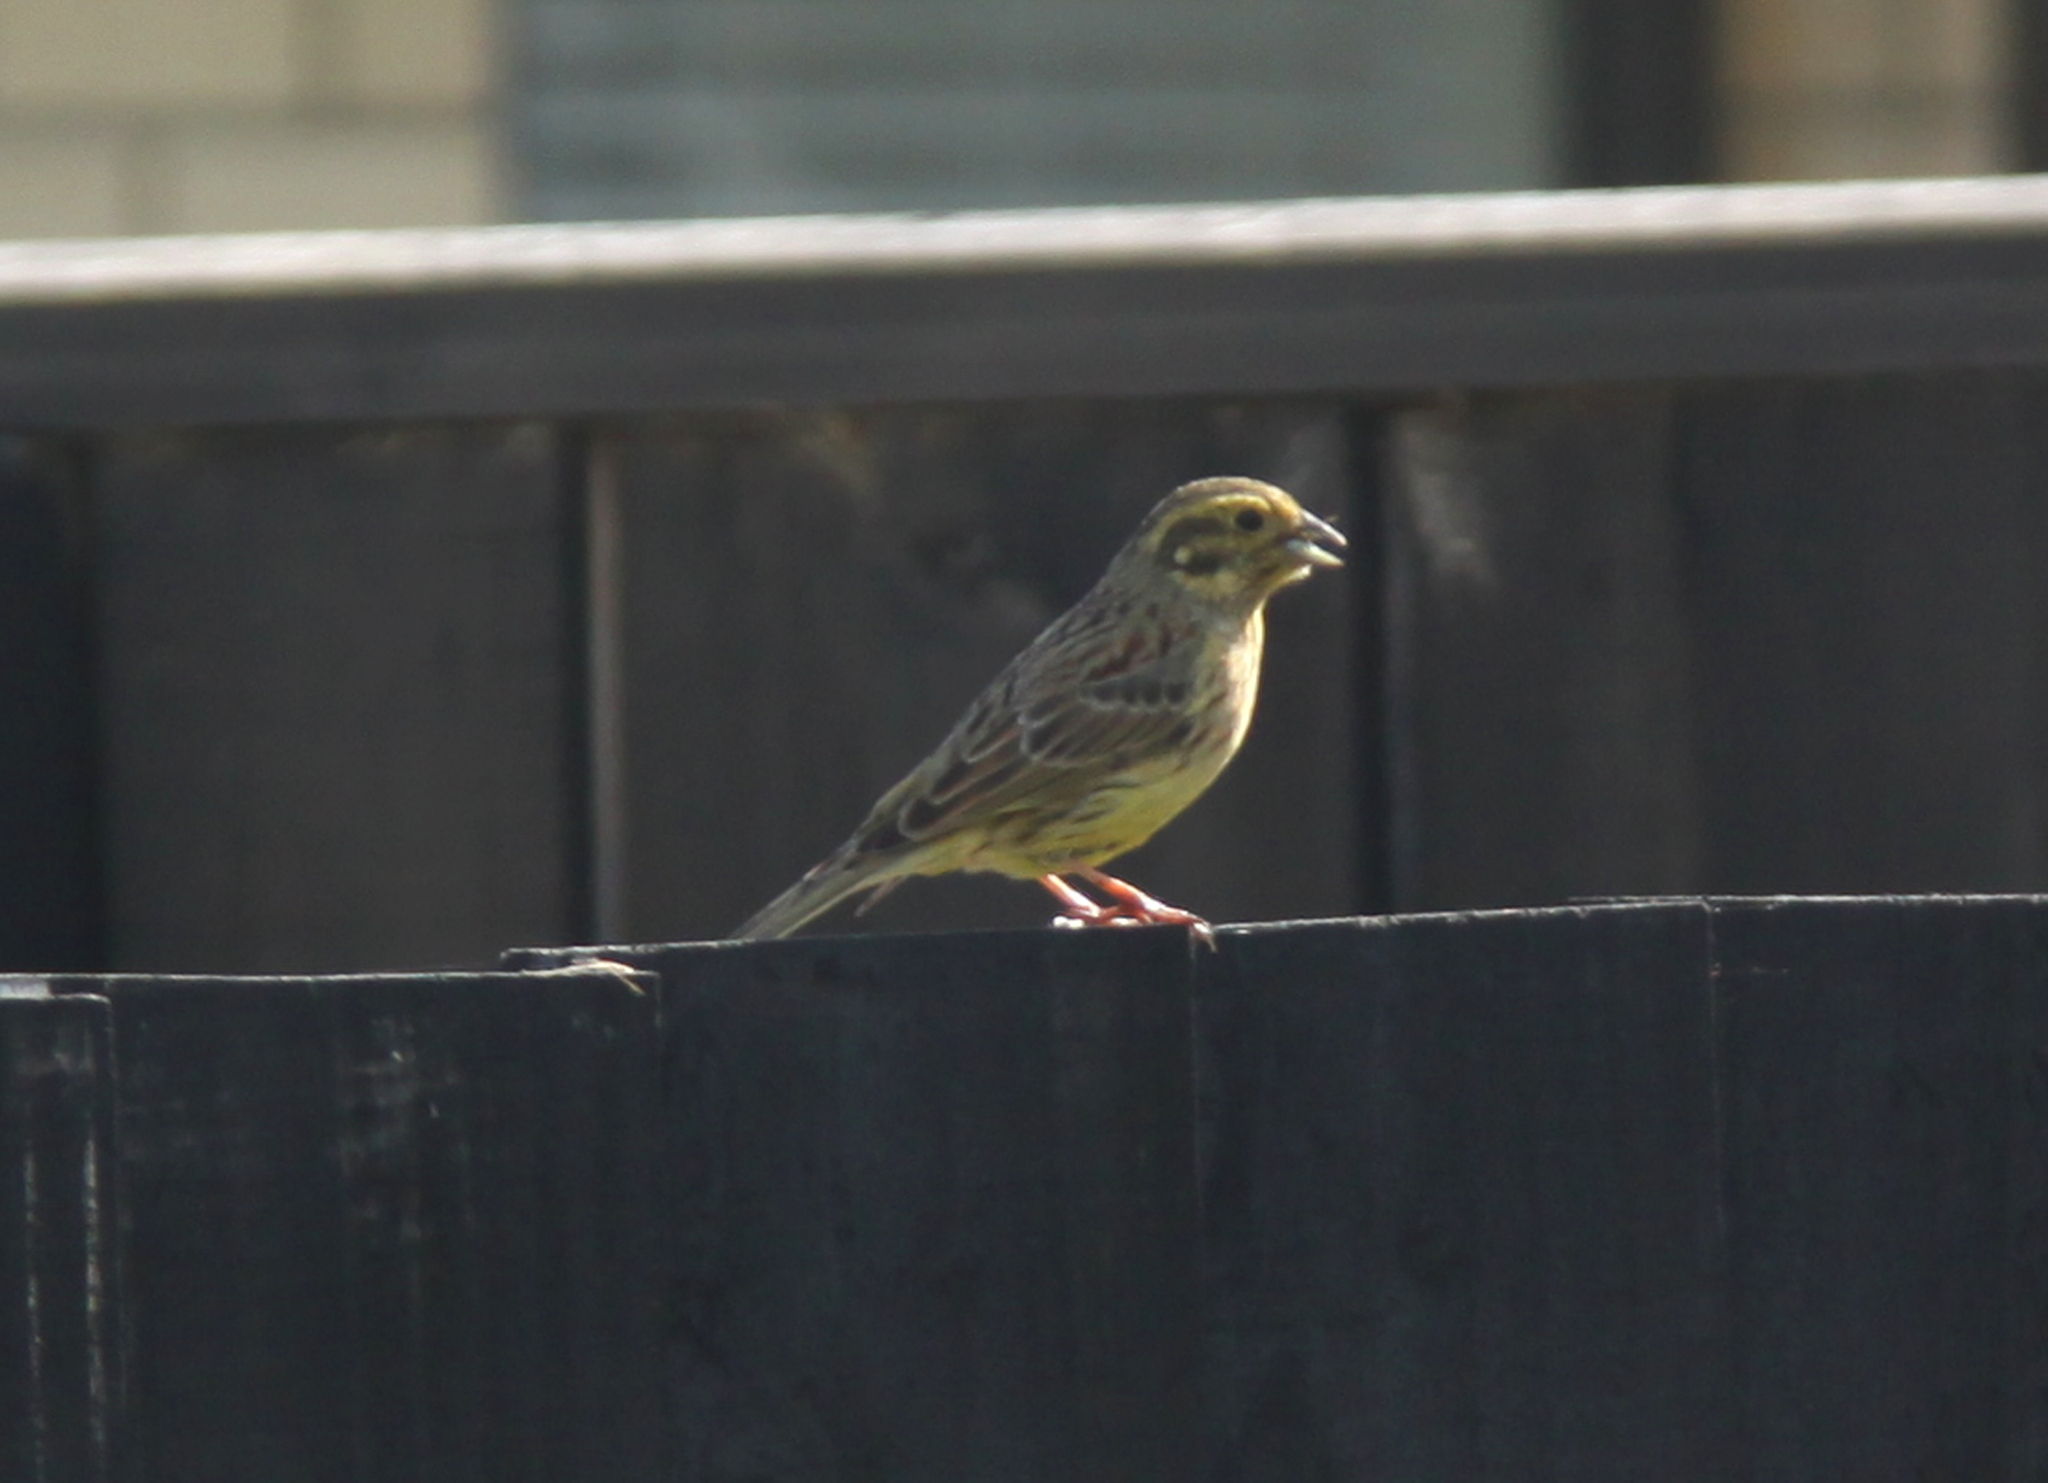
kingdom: Animalia
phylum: Chordata
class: Aves
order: Passeriformes
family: Emberizidae
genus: Emberiza
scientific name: Emberiza cirlus
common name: Cirl bunting
